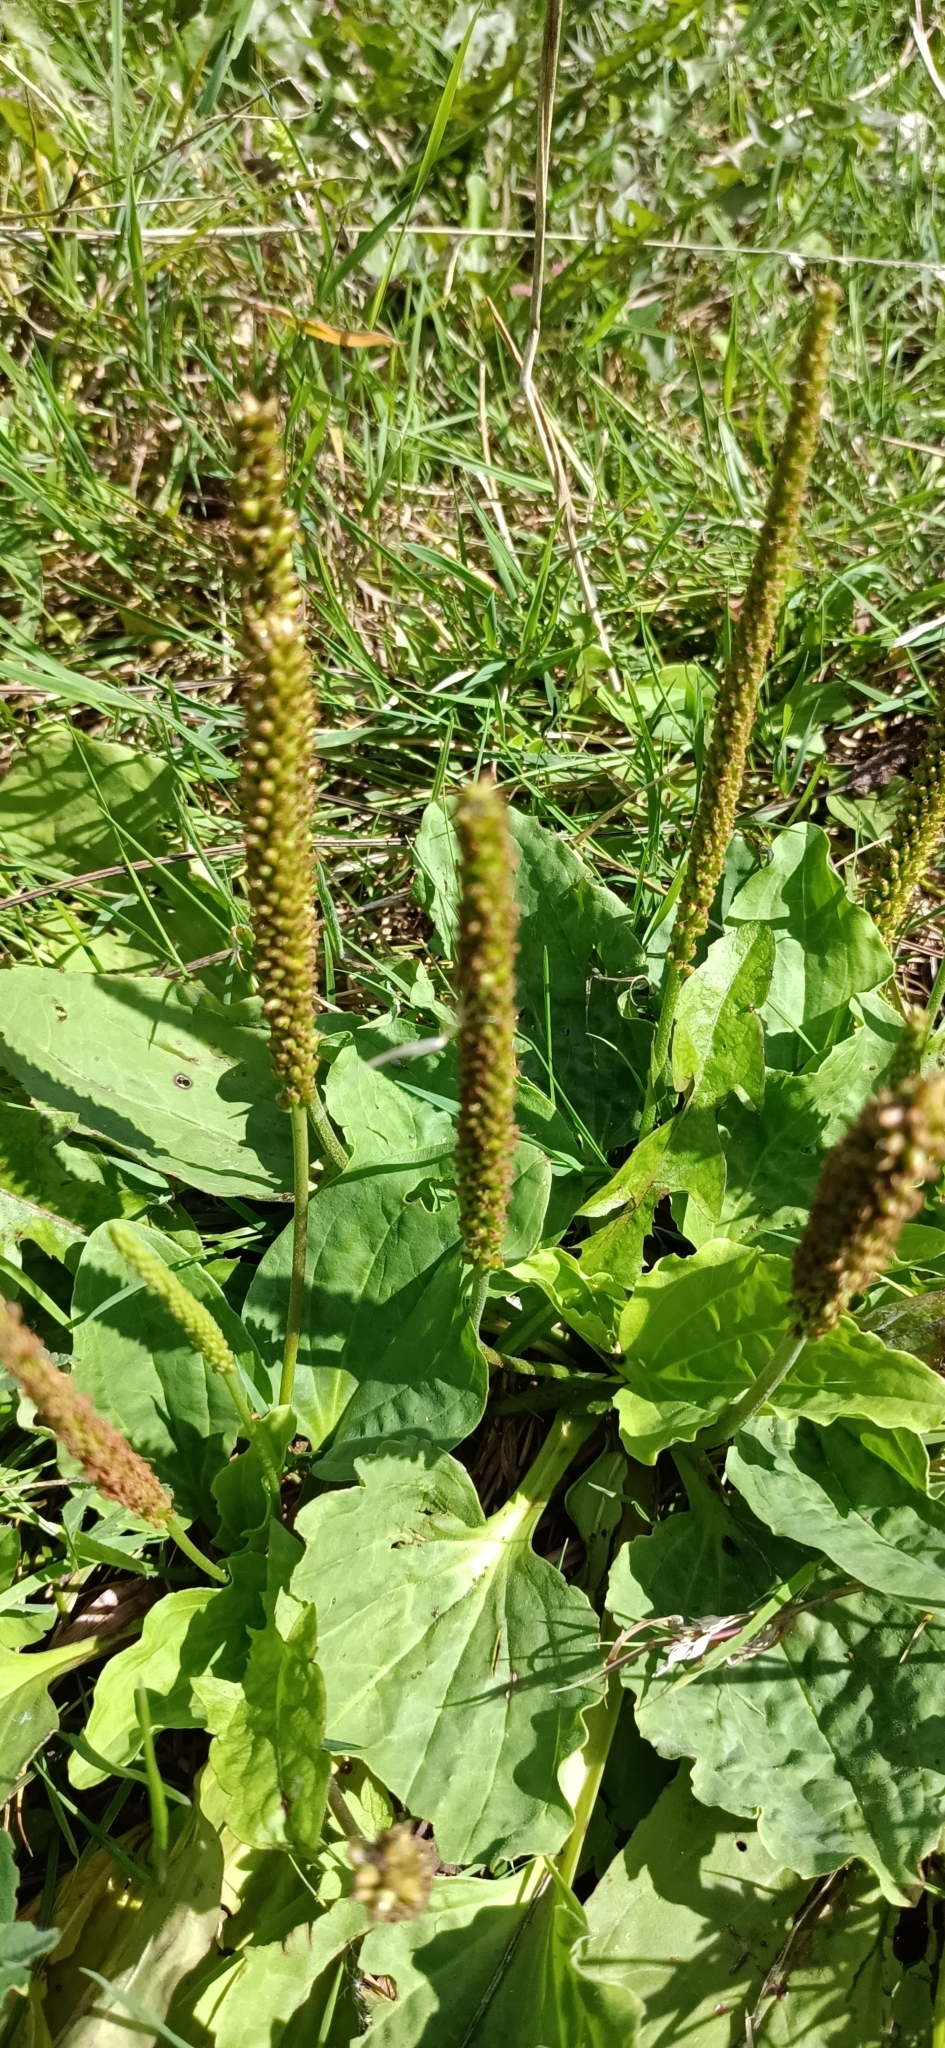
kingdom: Plantae
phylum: Tracheophyta
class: Magnoliopsida
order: Lamiales
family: Plantaginaceae
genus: Plantago
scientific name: Plantago major
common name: Common plantain
